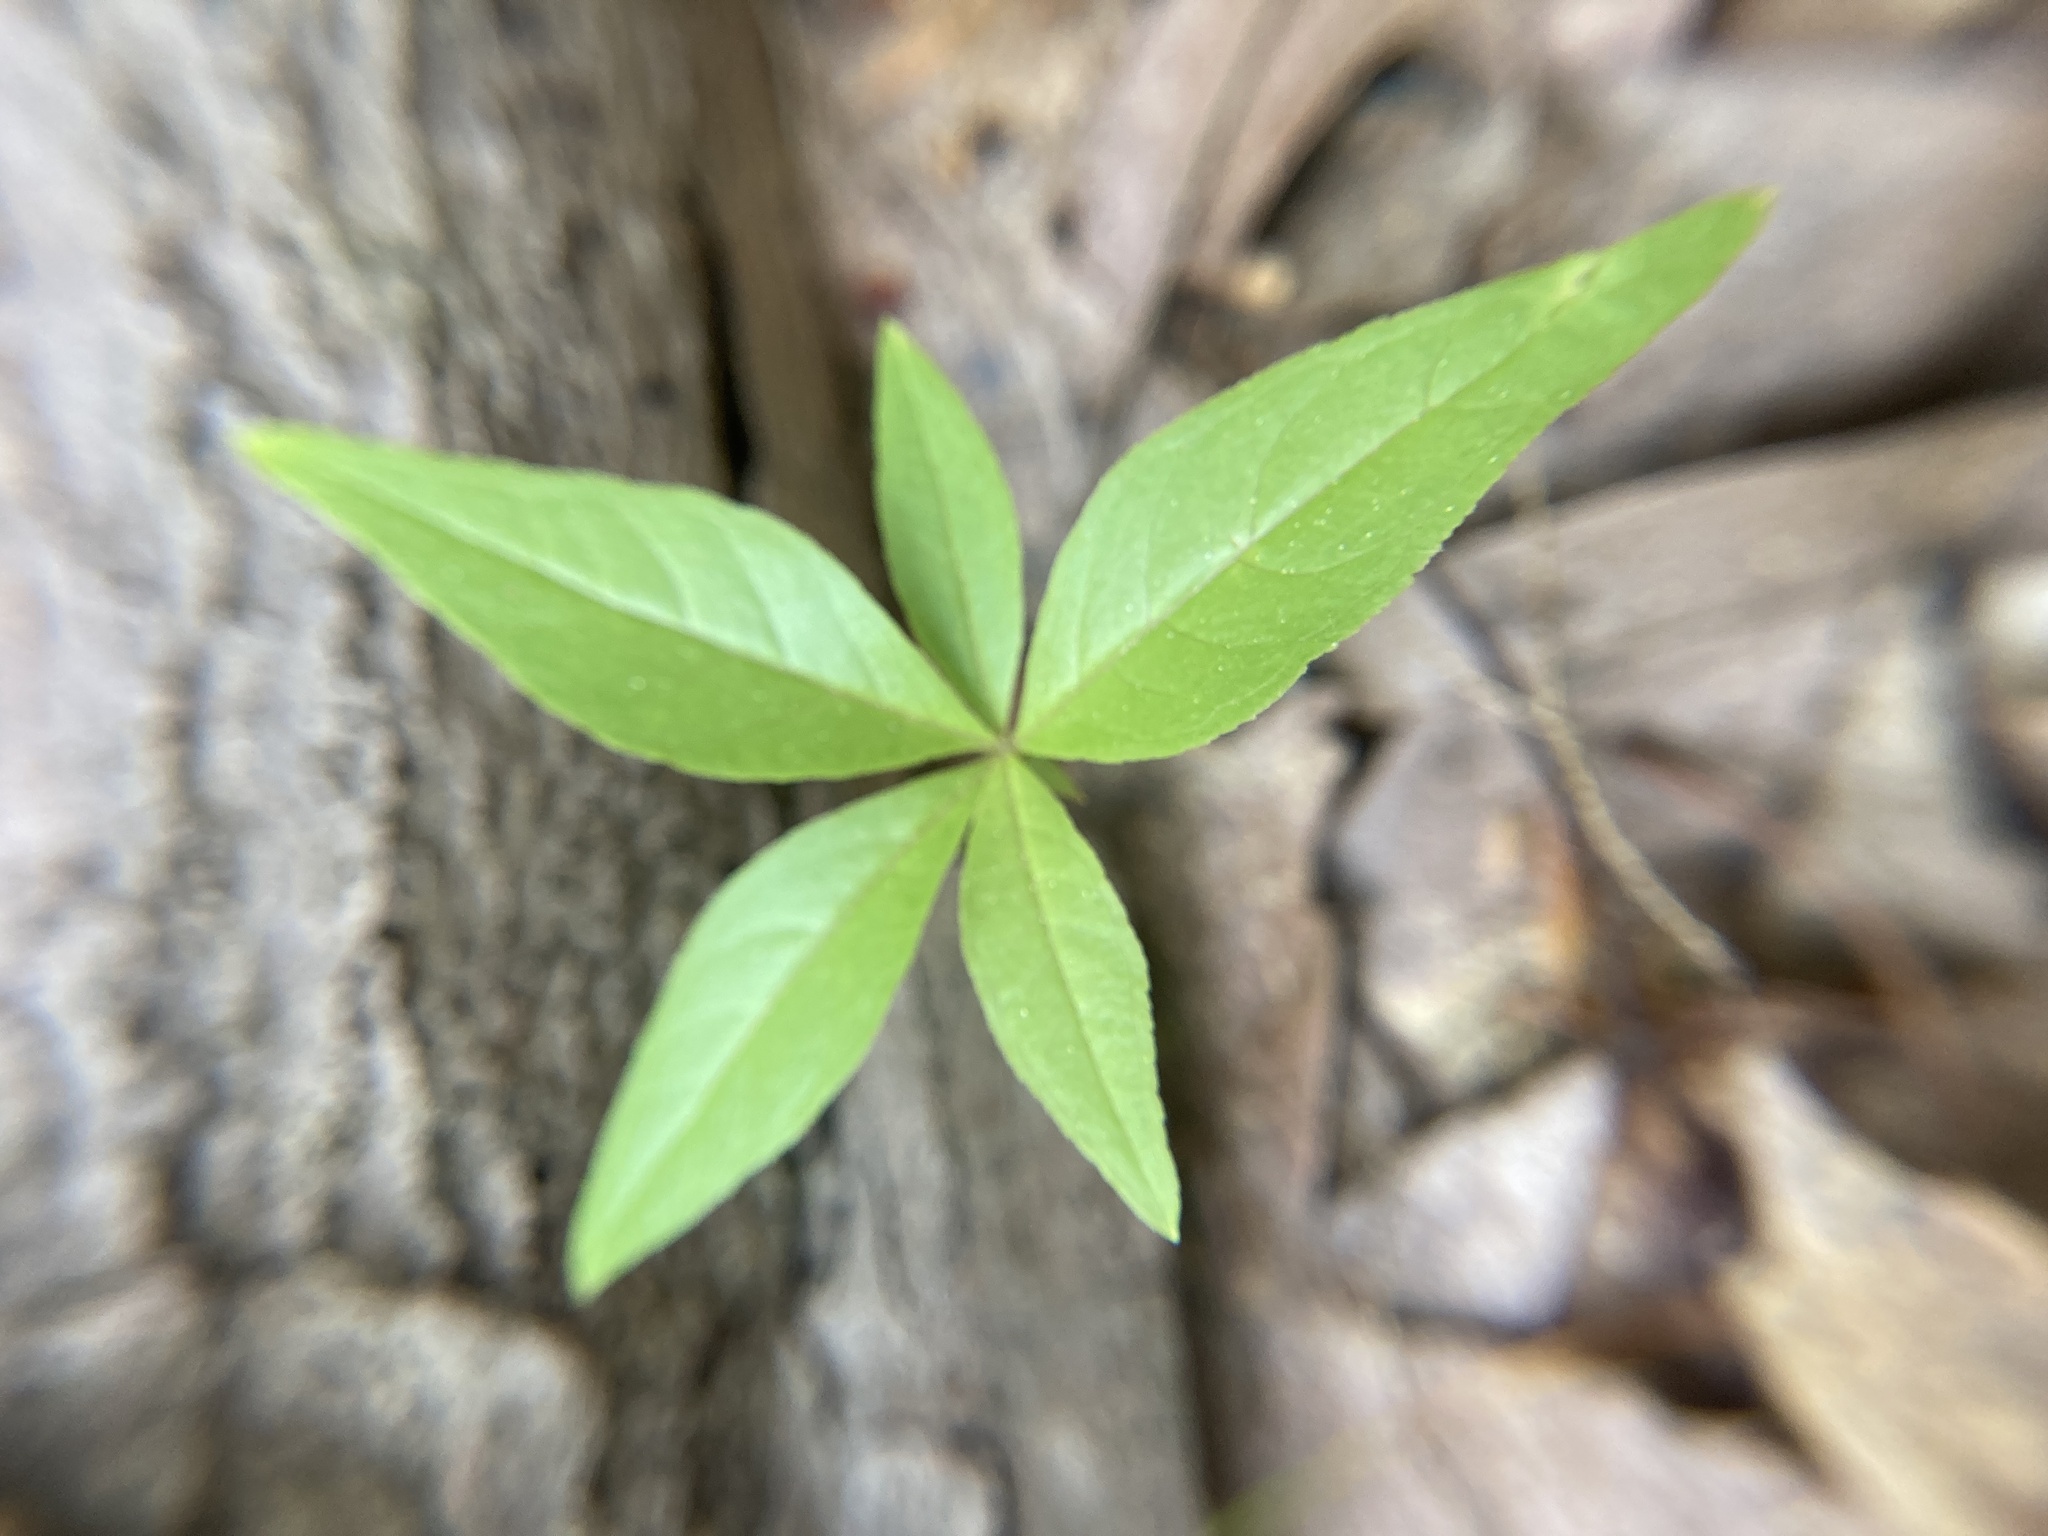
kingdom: Plantae
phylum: Tracheophyta
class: Magnoliopsida
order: Ericales
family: Primulaceae
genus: Lysimachia
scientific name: Lysimachia borealis
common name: American starflower
